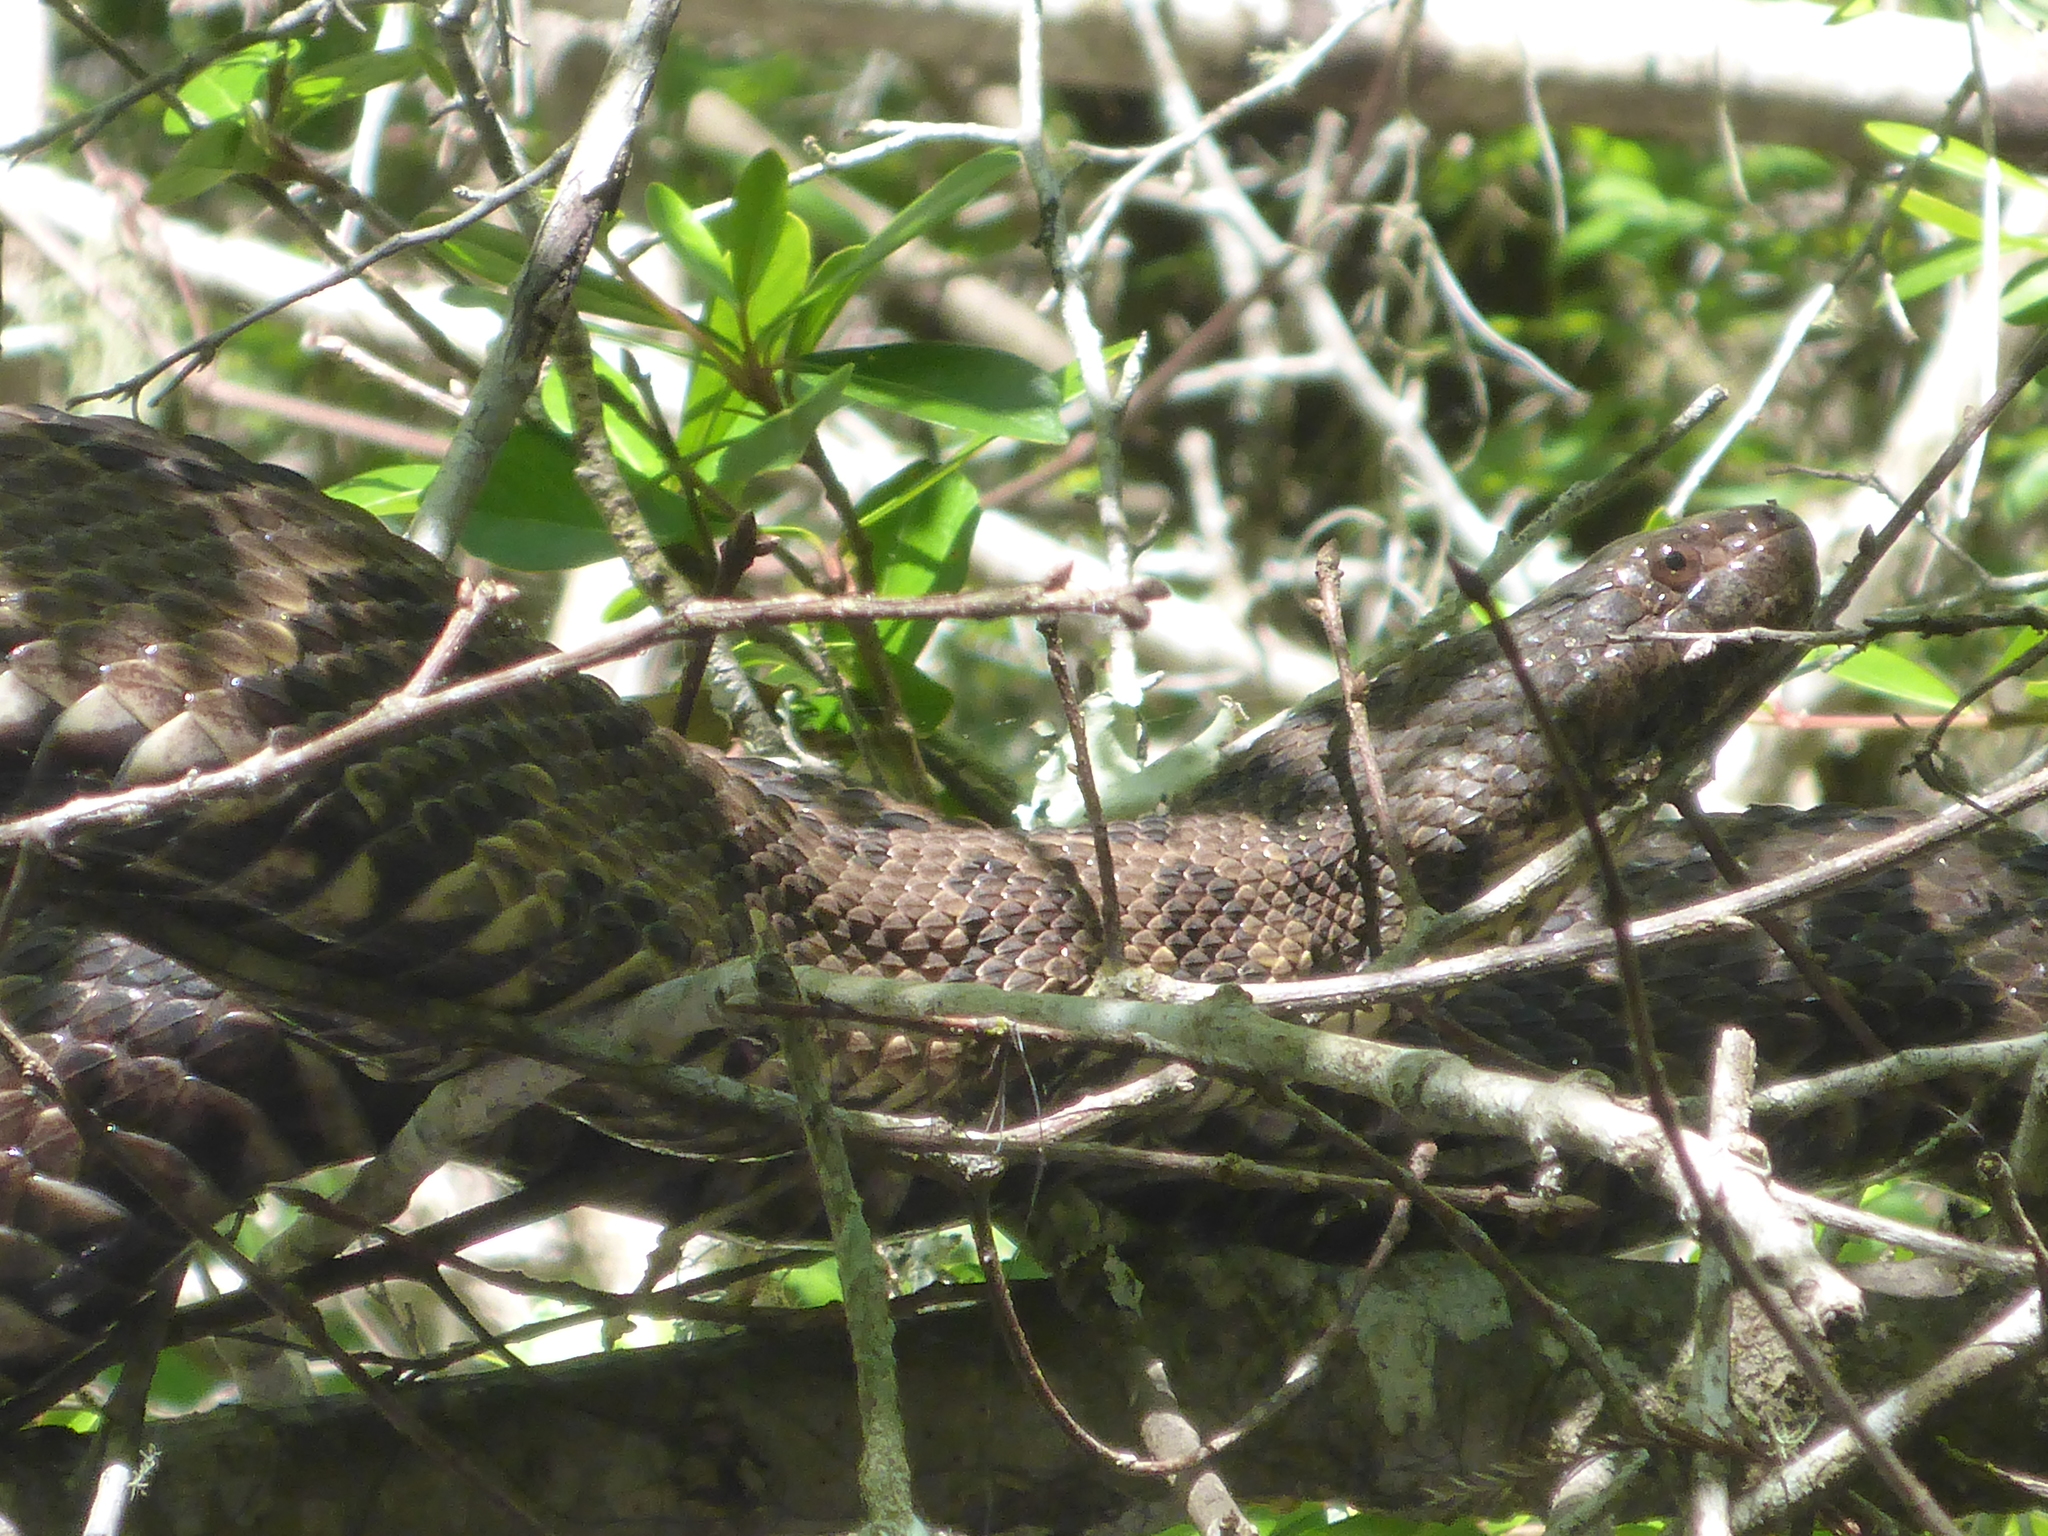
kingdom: Animalia
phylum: Chordata
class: Squamata
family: Colubridae
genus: Nerodia
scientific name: Nerodia taxispilota
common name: Brown water snake
